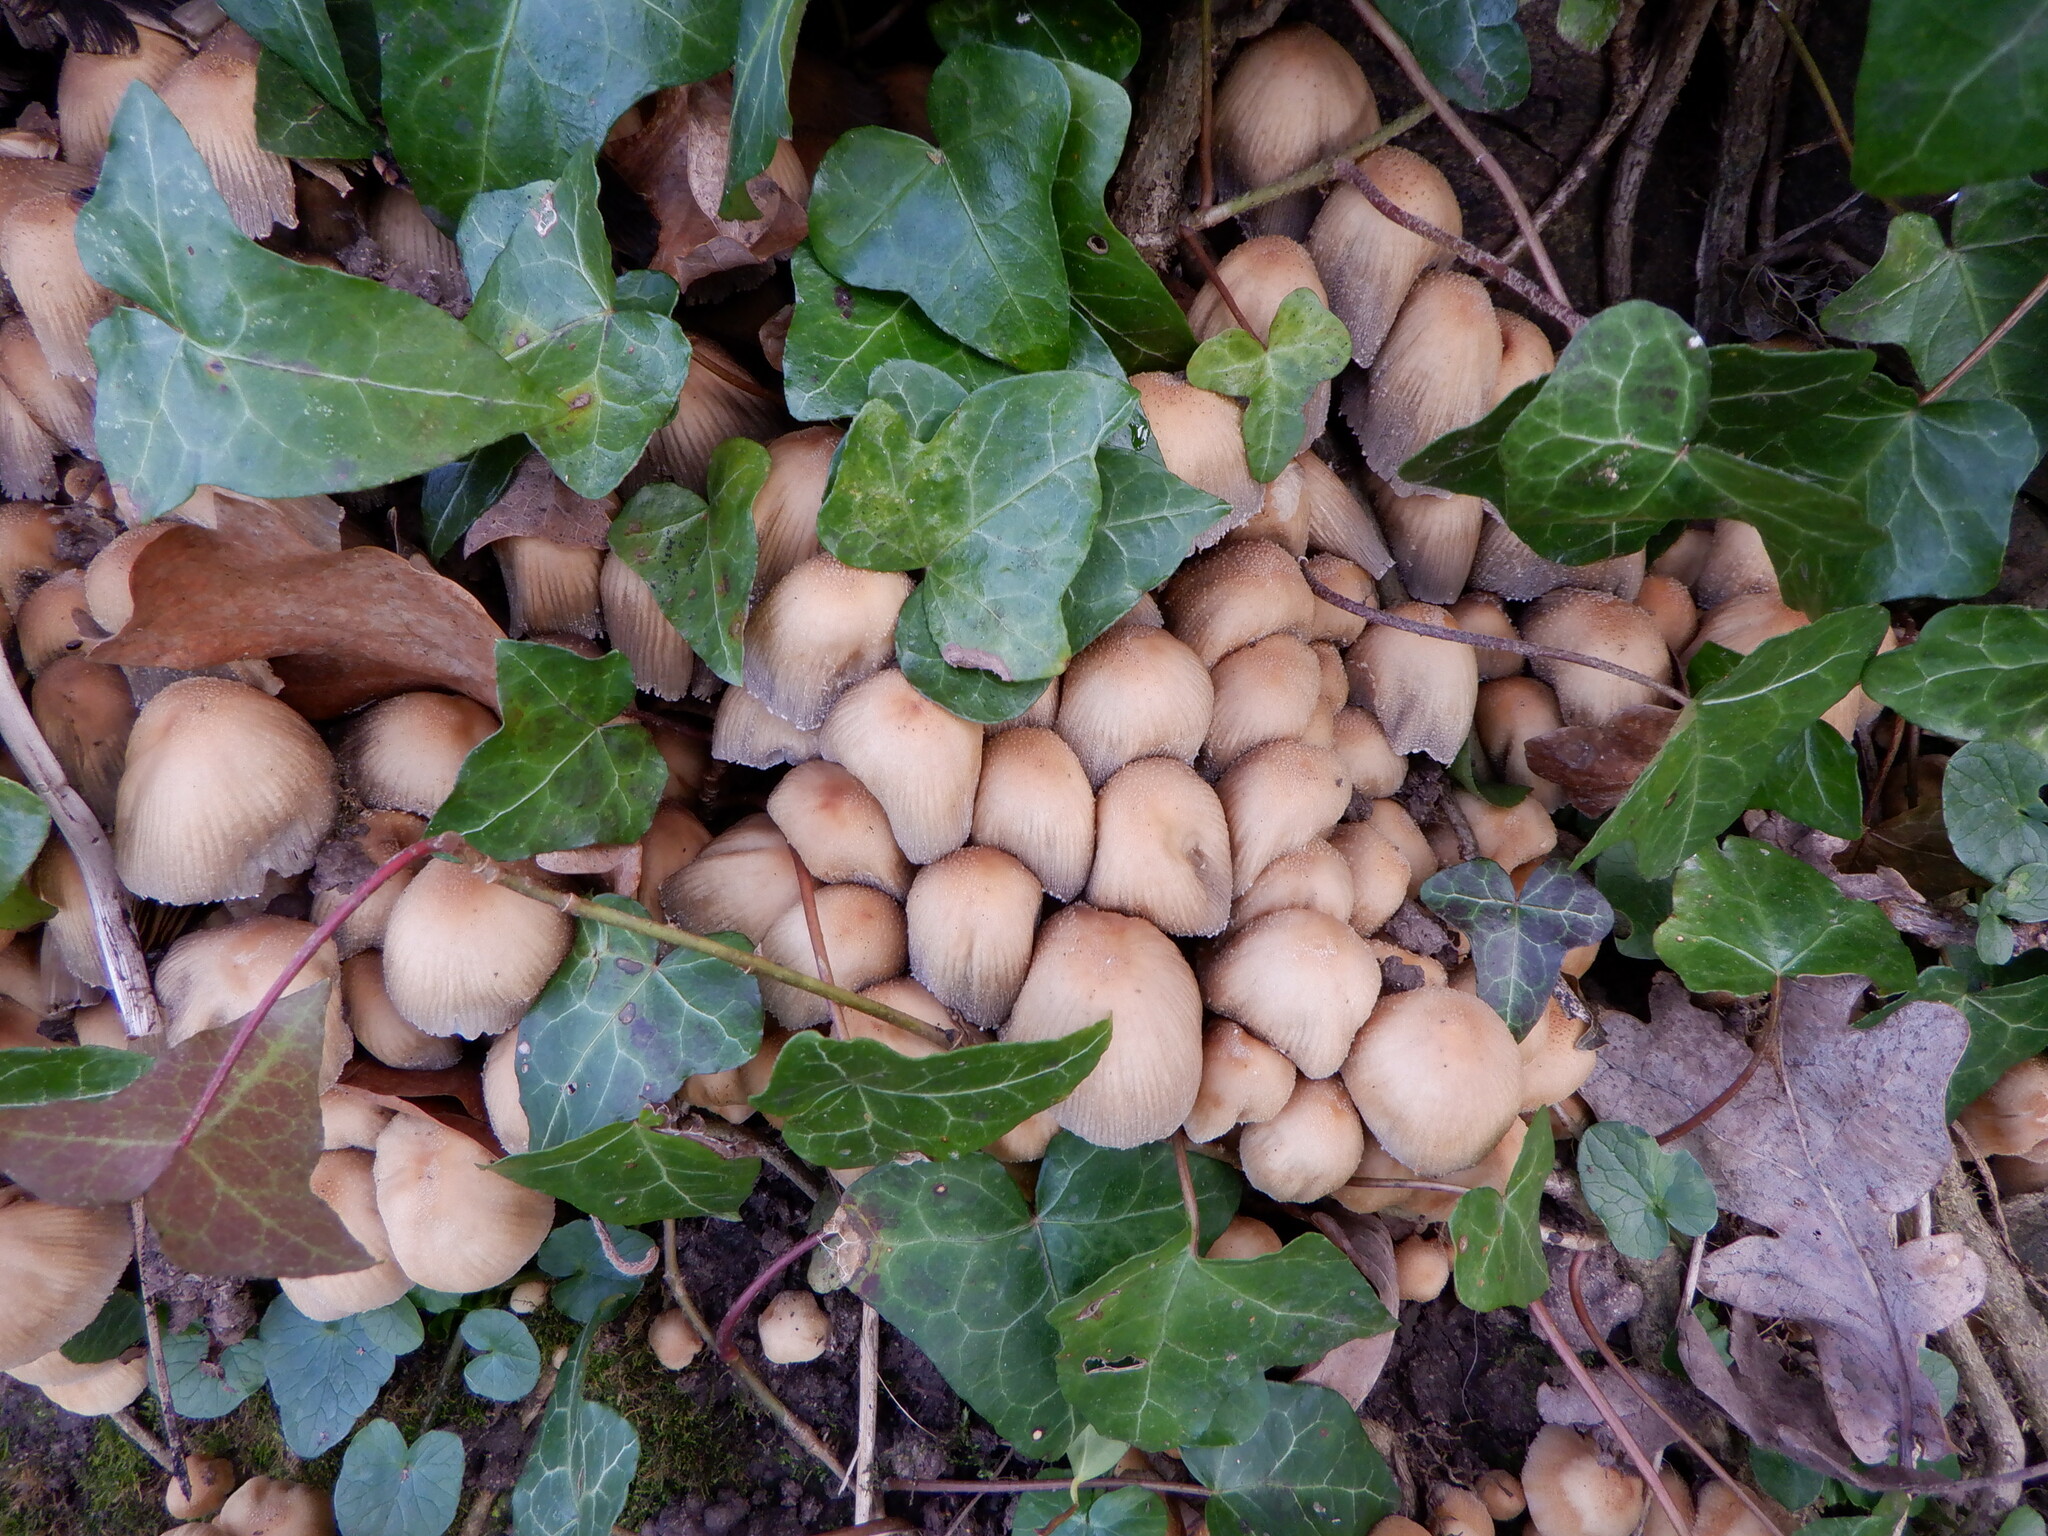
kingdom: Fungi
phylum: Basidiomycota
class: Agaricomycetes
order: Agaricales
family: Psathyrellaceae
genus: Coprinellus
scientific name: Coprinellus micaceus
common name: Glistening ink-cap
